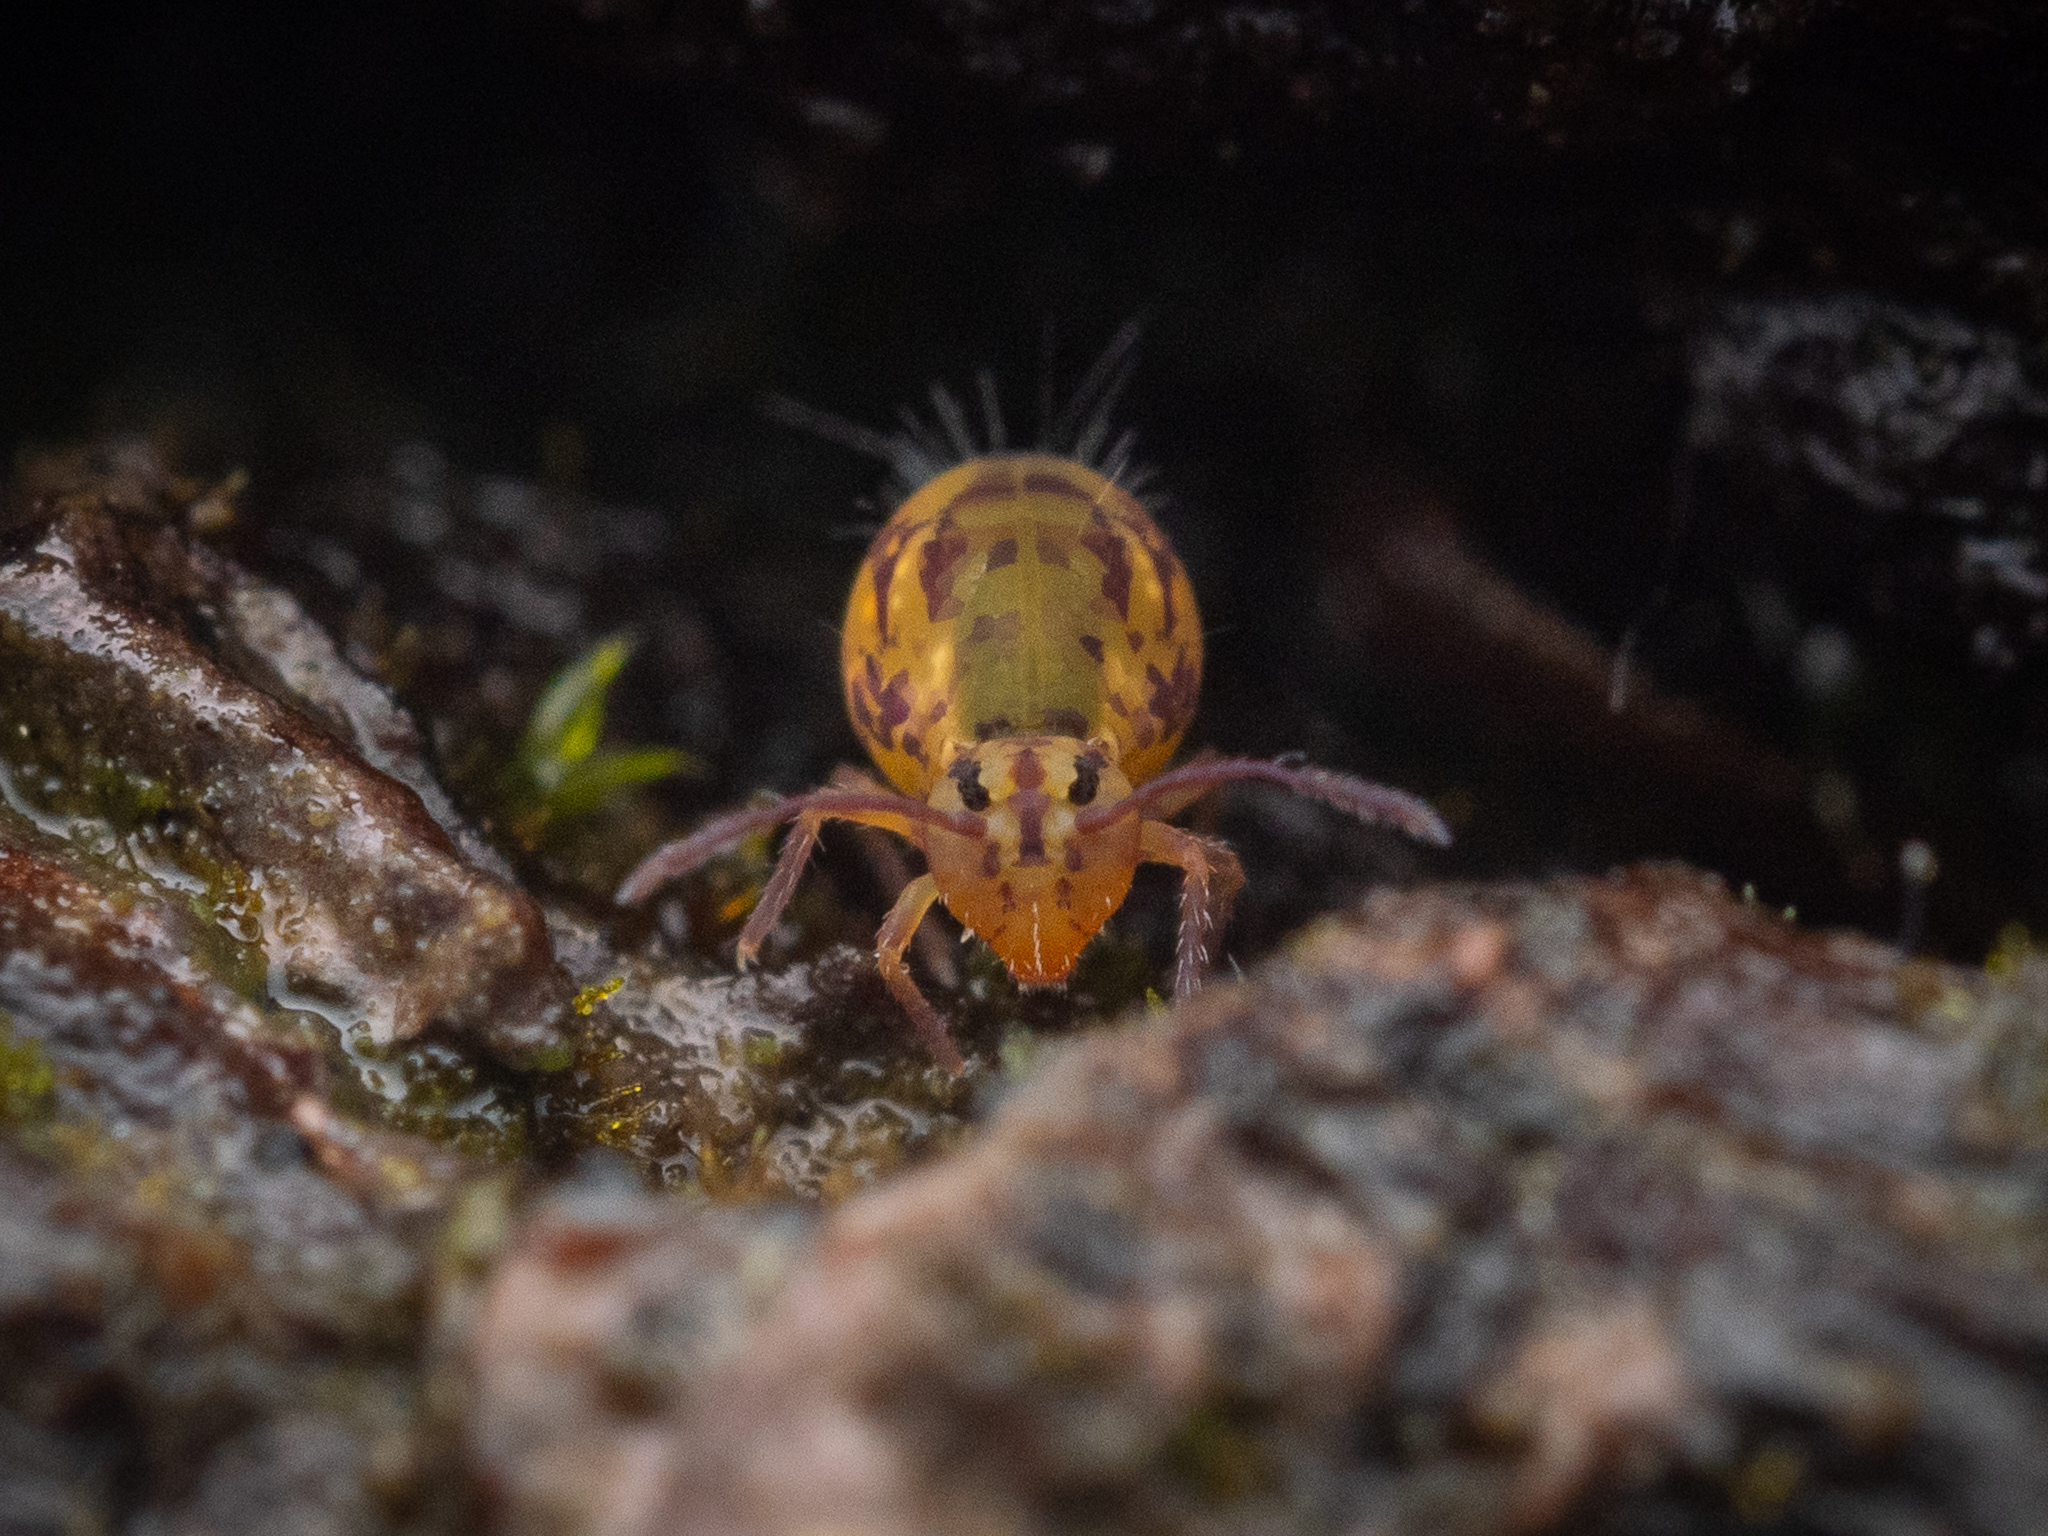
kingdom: Animalia
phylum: Arthropoda
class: Collembola
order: Symphypleona
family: Dicyrtomidae
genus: Dicyrtomina
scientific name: Dicyrtomina ornata
